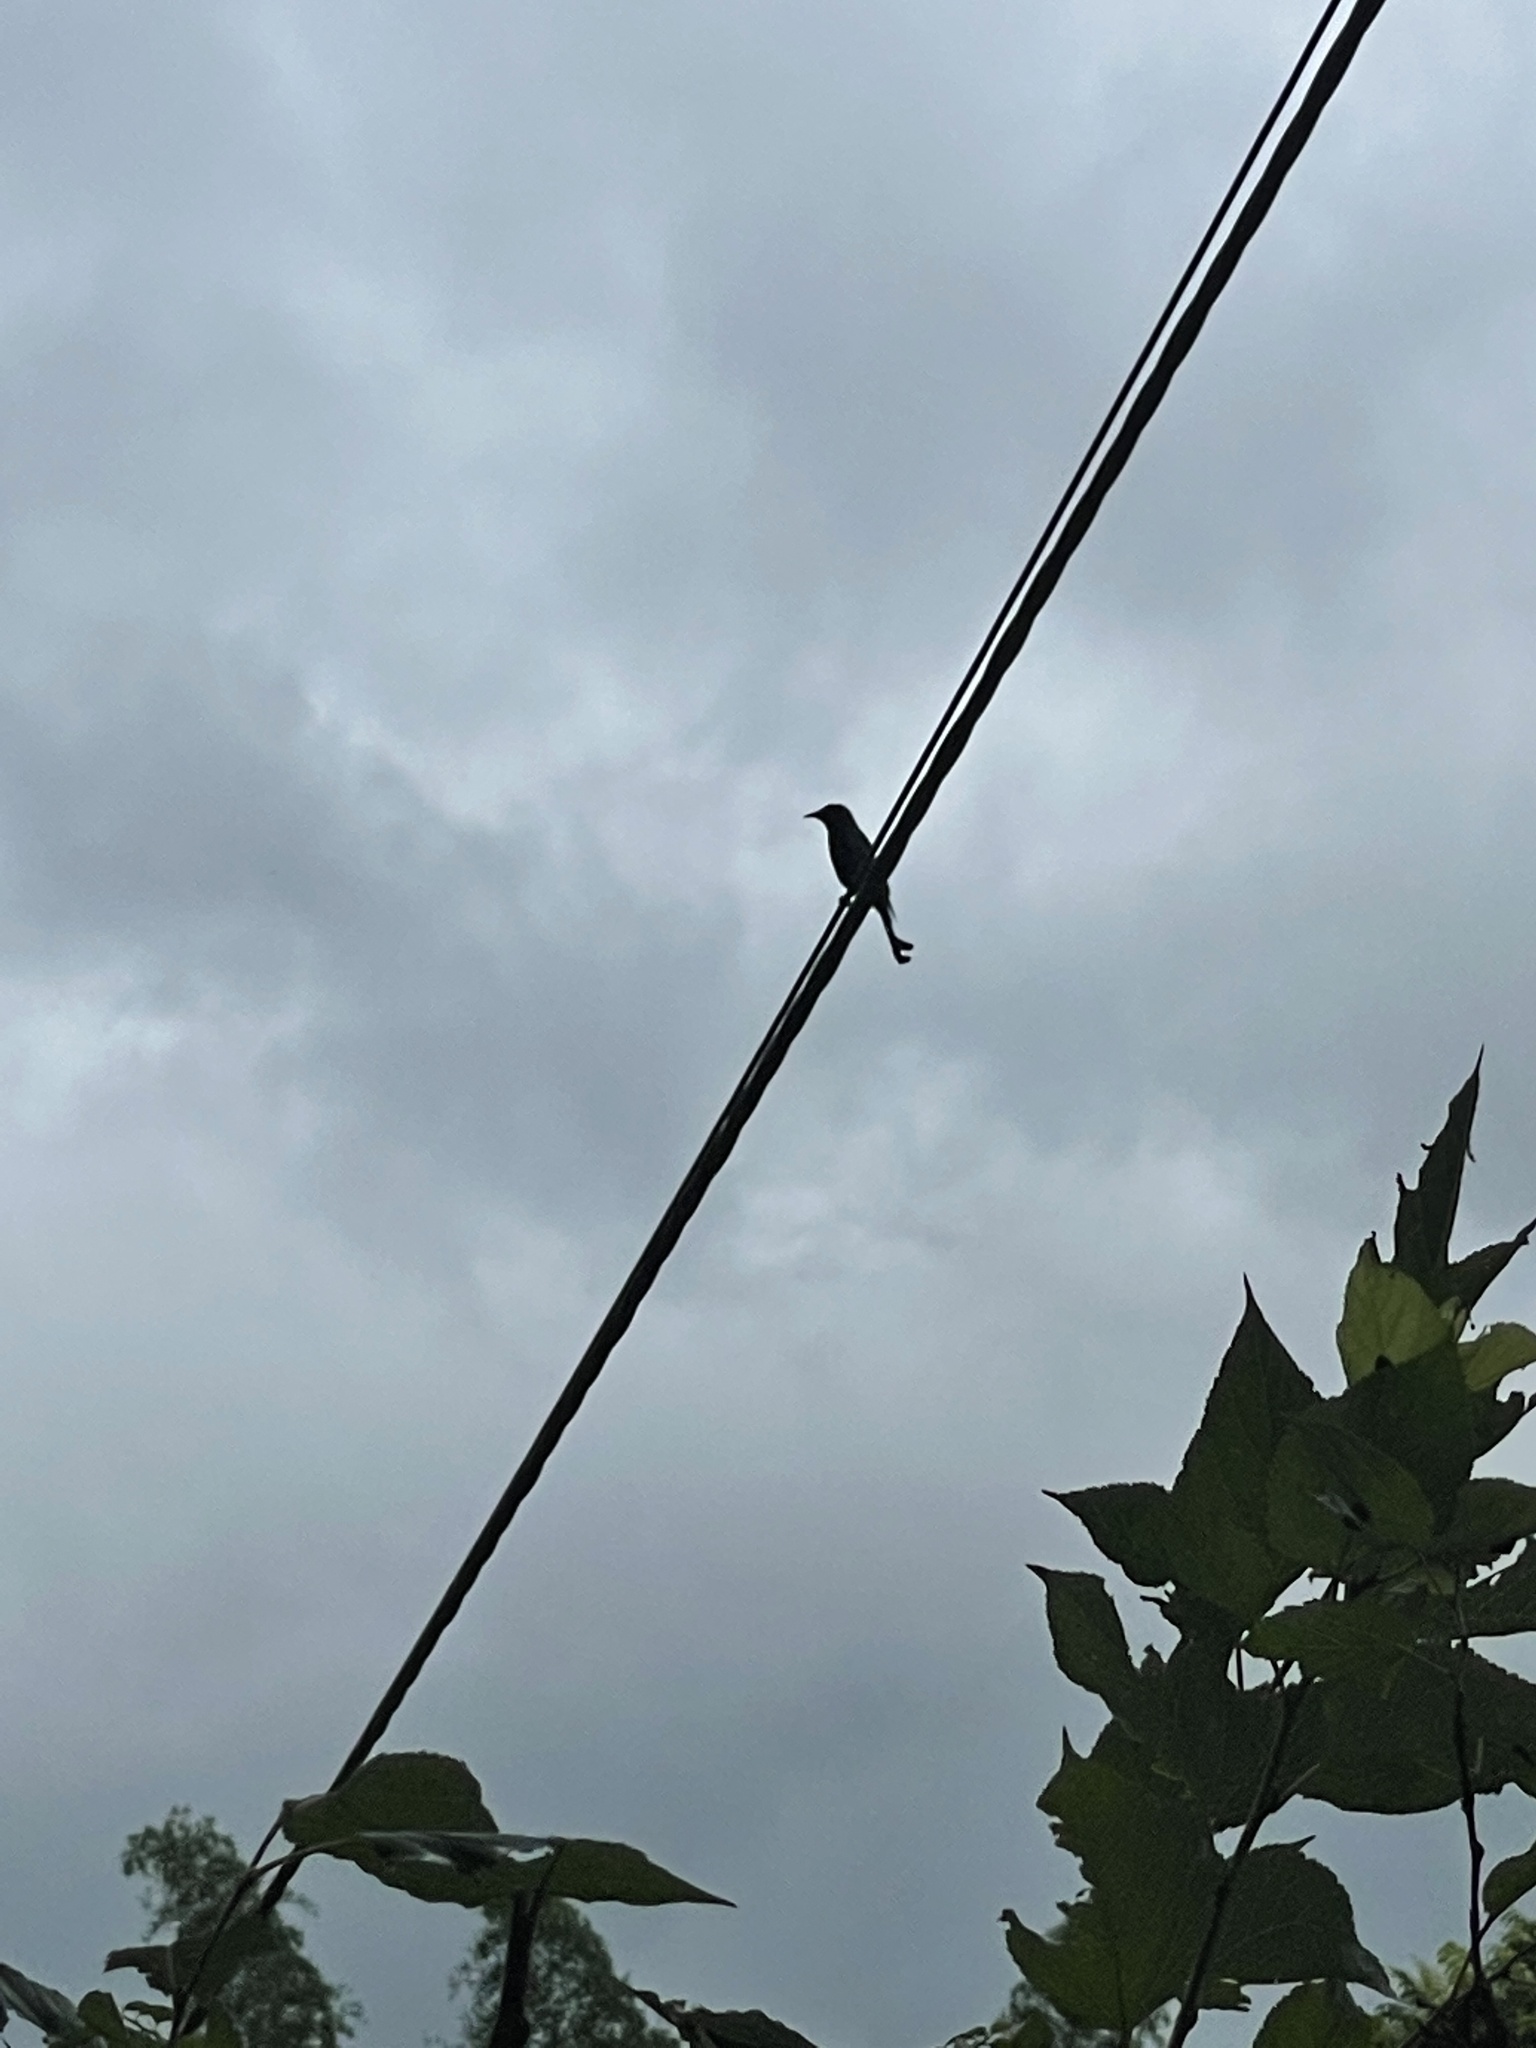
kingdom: Animalia
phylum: Chordata
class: Aves
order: Passeriformes
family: Dicruridae
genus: Dicrurus
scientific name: Dicrurus macrocercus
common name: Black drongo
